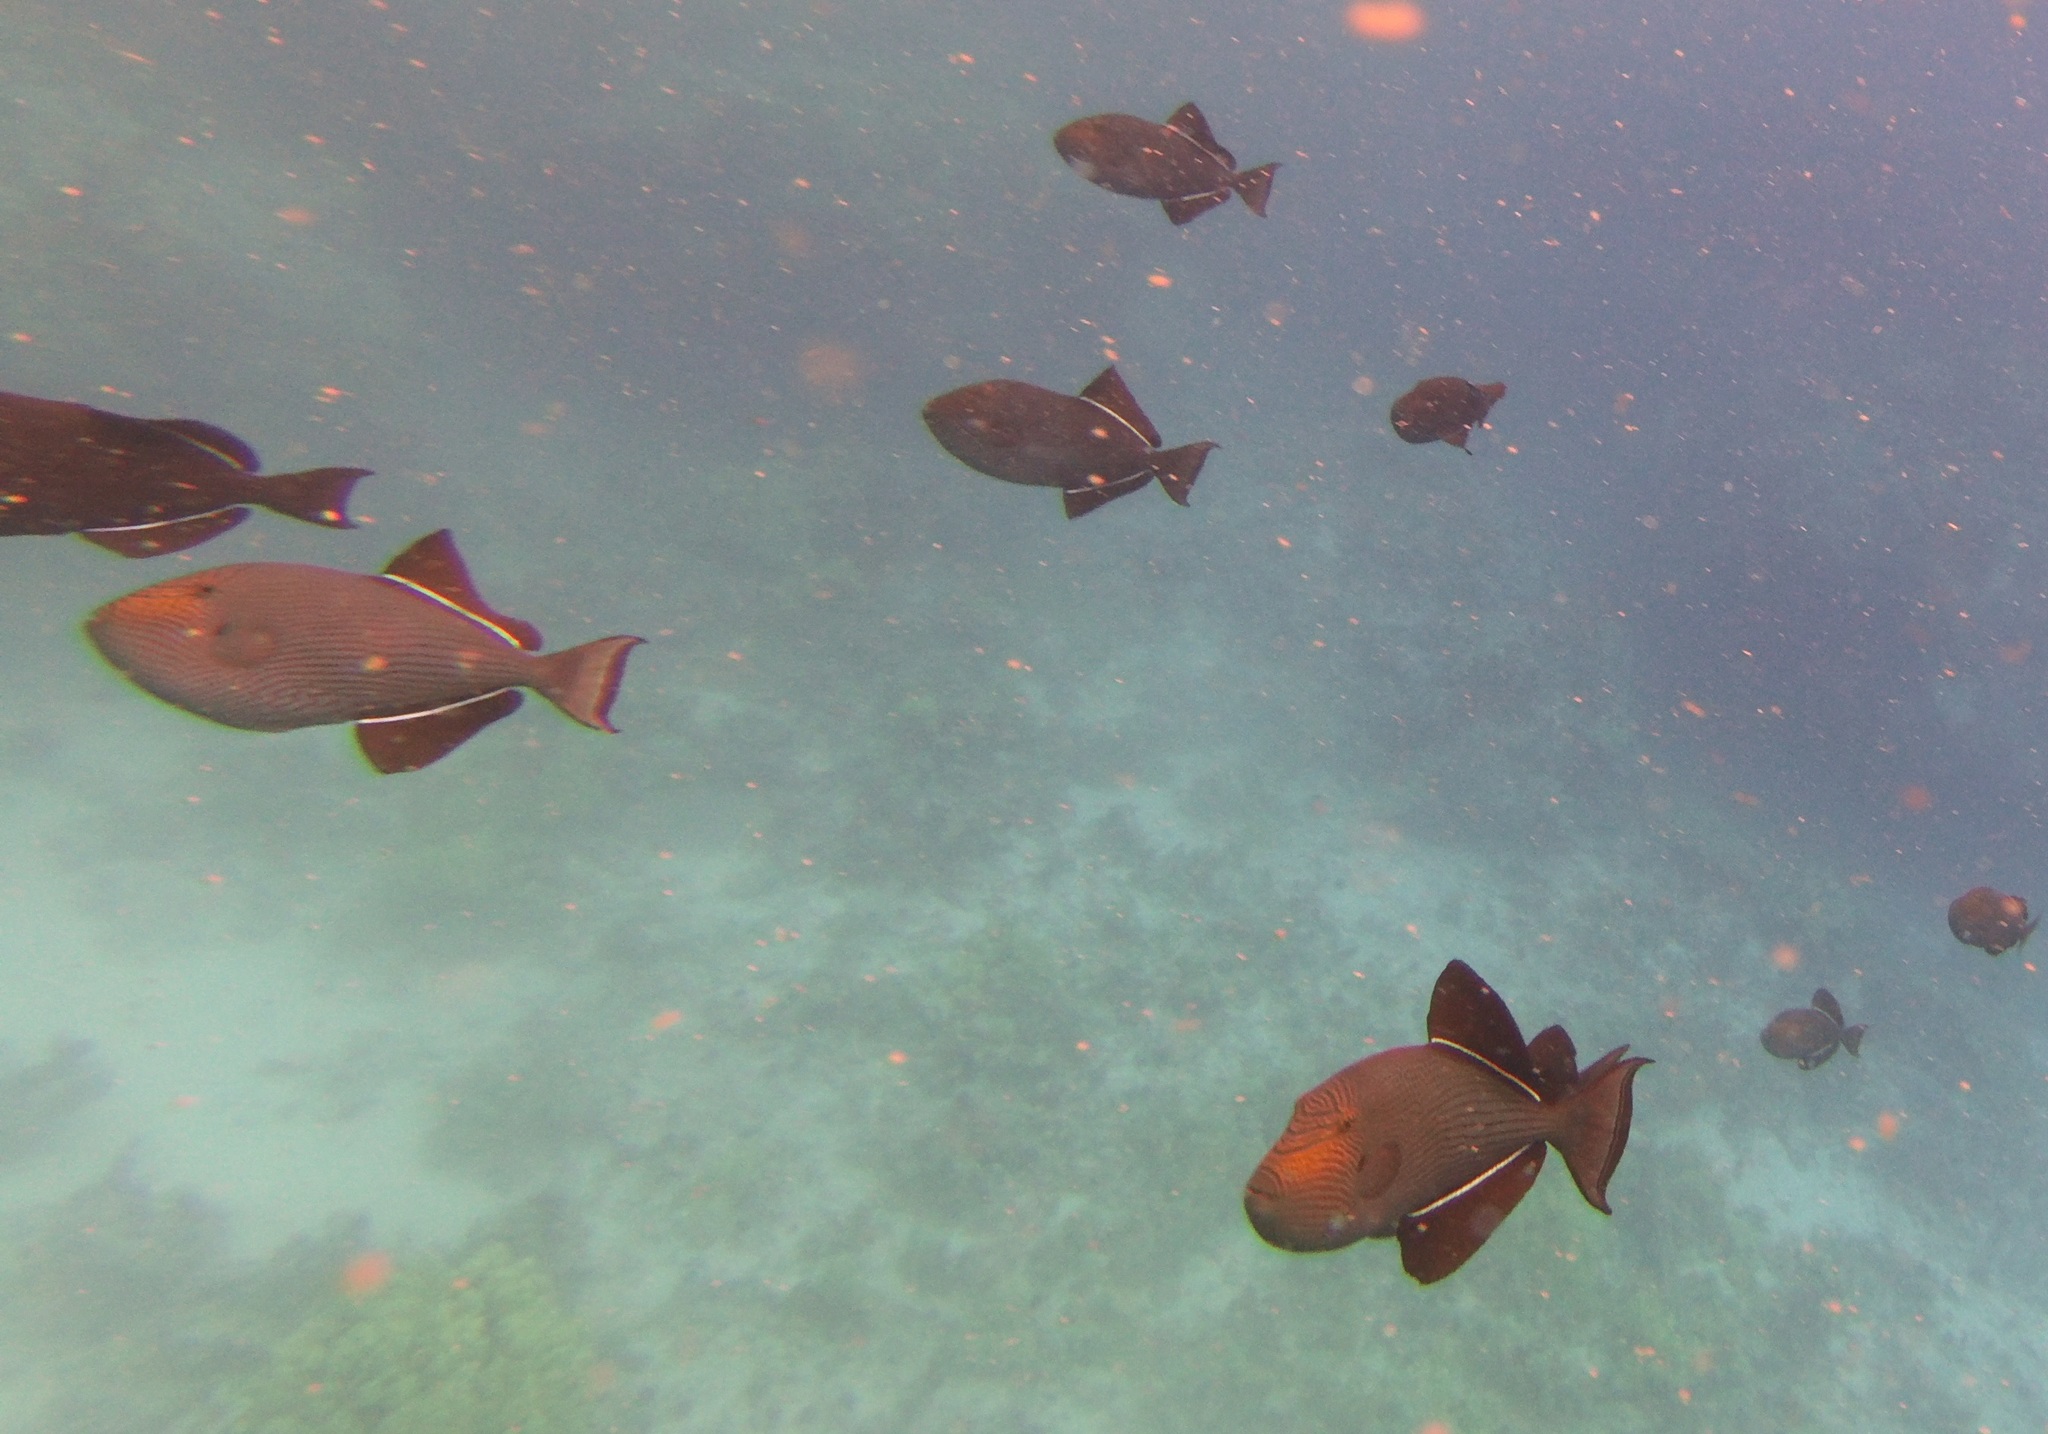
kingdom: Animalia
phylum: Chordata
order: Tetraodontiformes
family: Balistidae
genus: Melichthys
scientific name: Melichthys niger
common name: Black durgon
